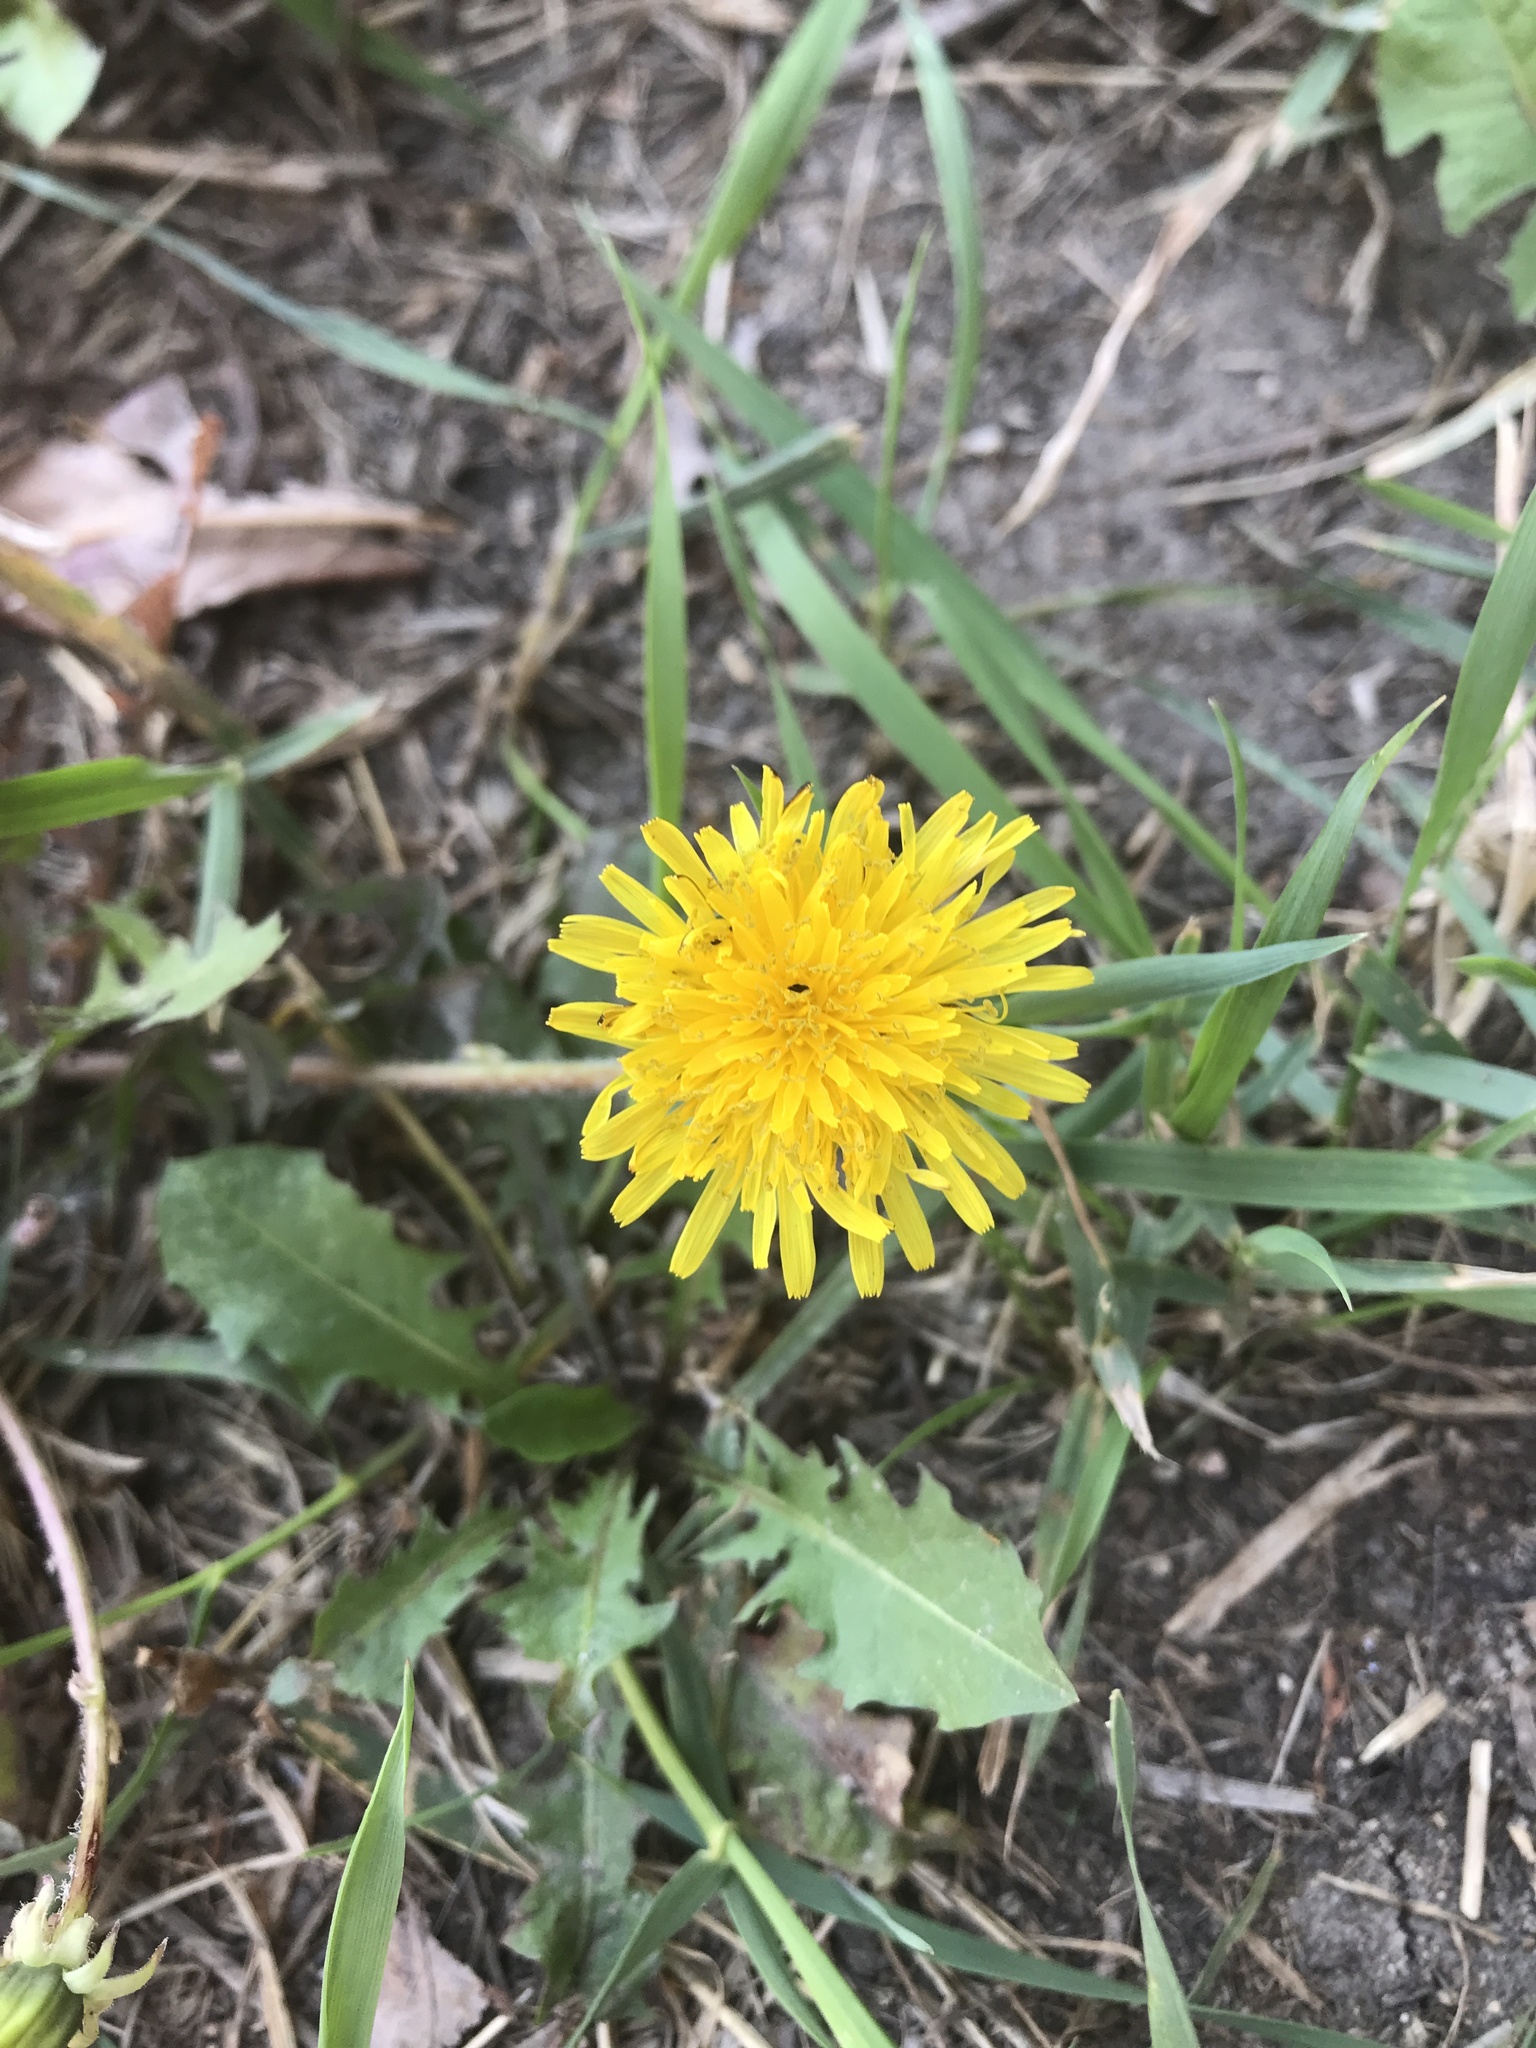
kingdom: Plantae
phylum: Tracheophyta
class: Magnoliopsida
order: Asterales
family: Asteraceae
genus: Taraxacum
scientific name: Taraxacum officinale
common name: Common dandelion
